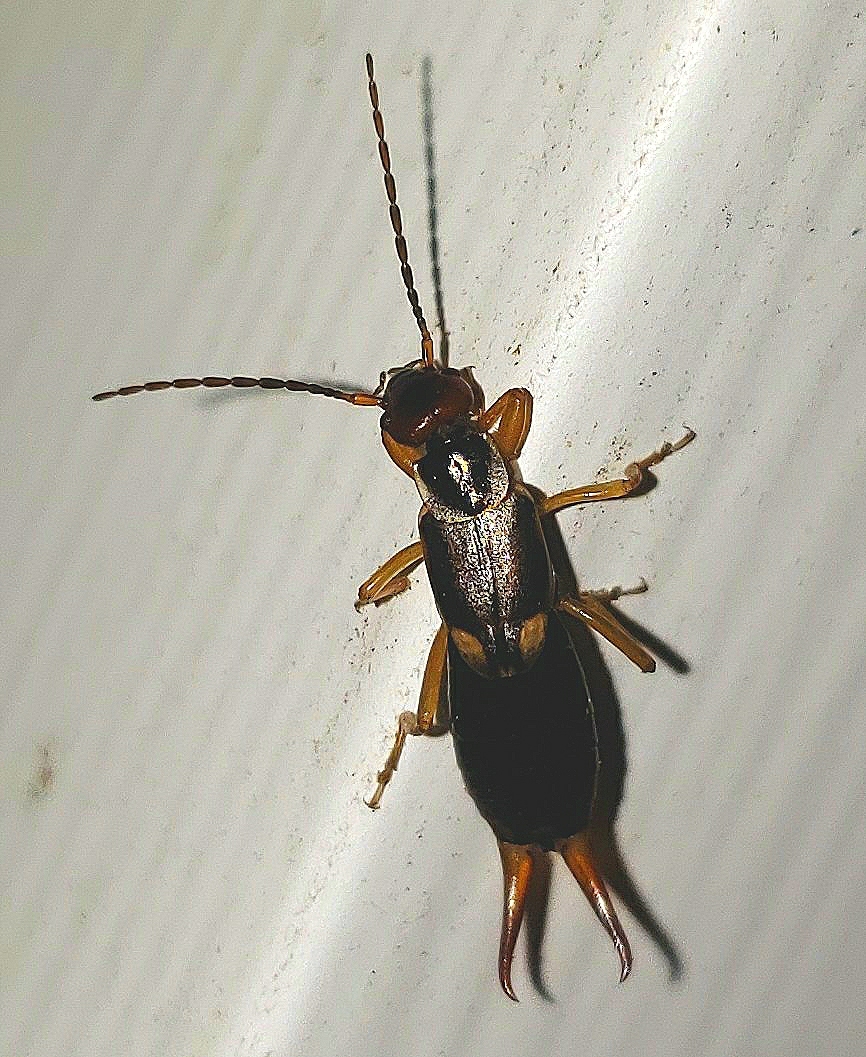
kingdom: Animalia
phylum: Arthropoda
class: Insecta
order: Dermaptera
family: Forficulidae
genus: Forficula
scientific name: Forficula
